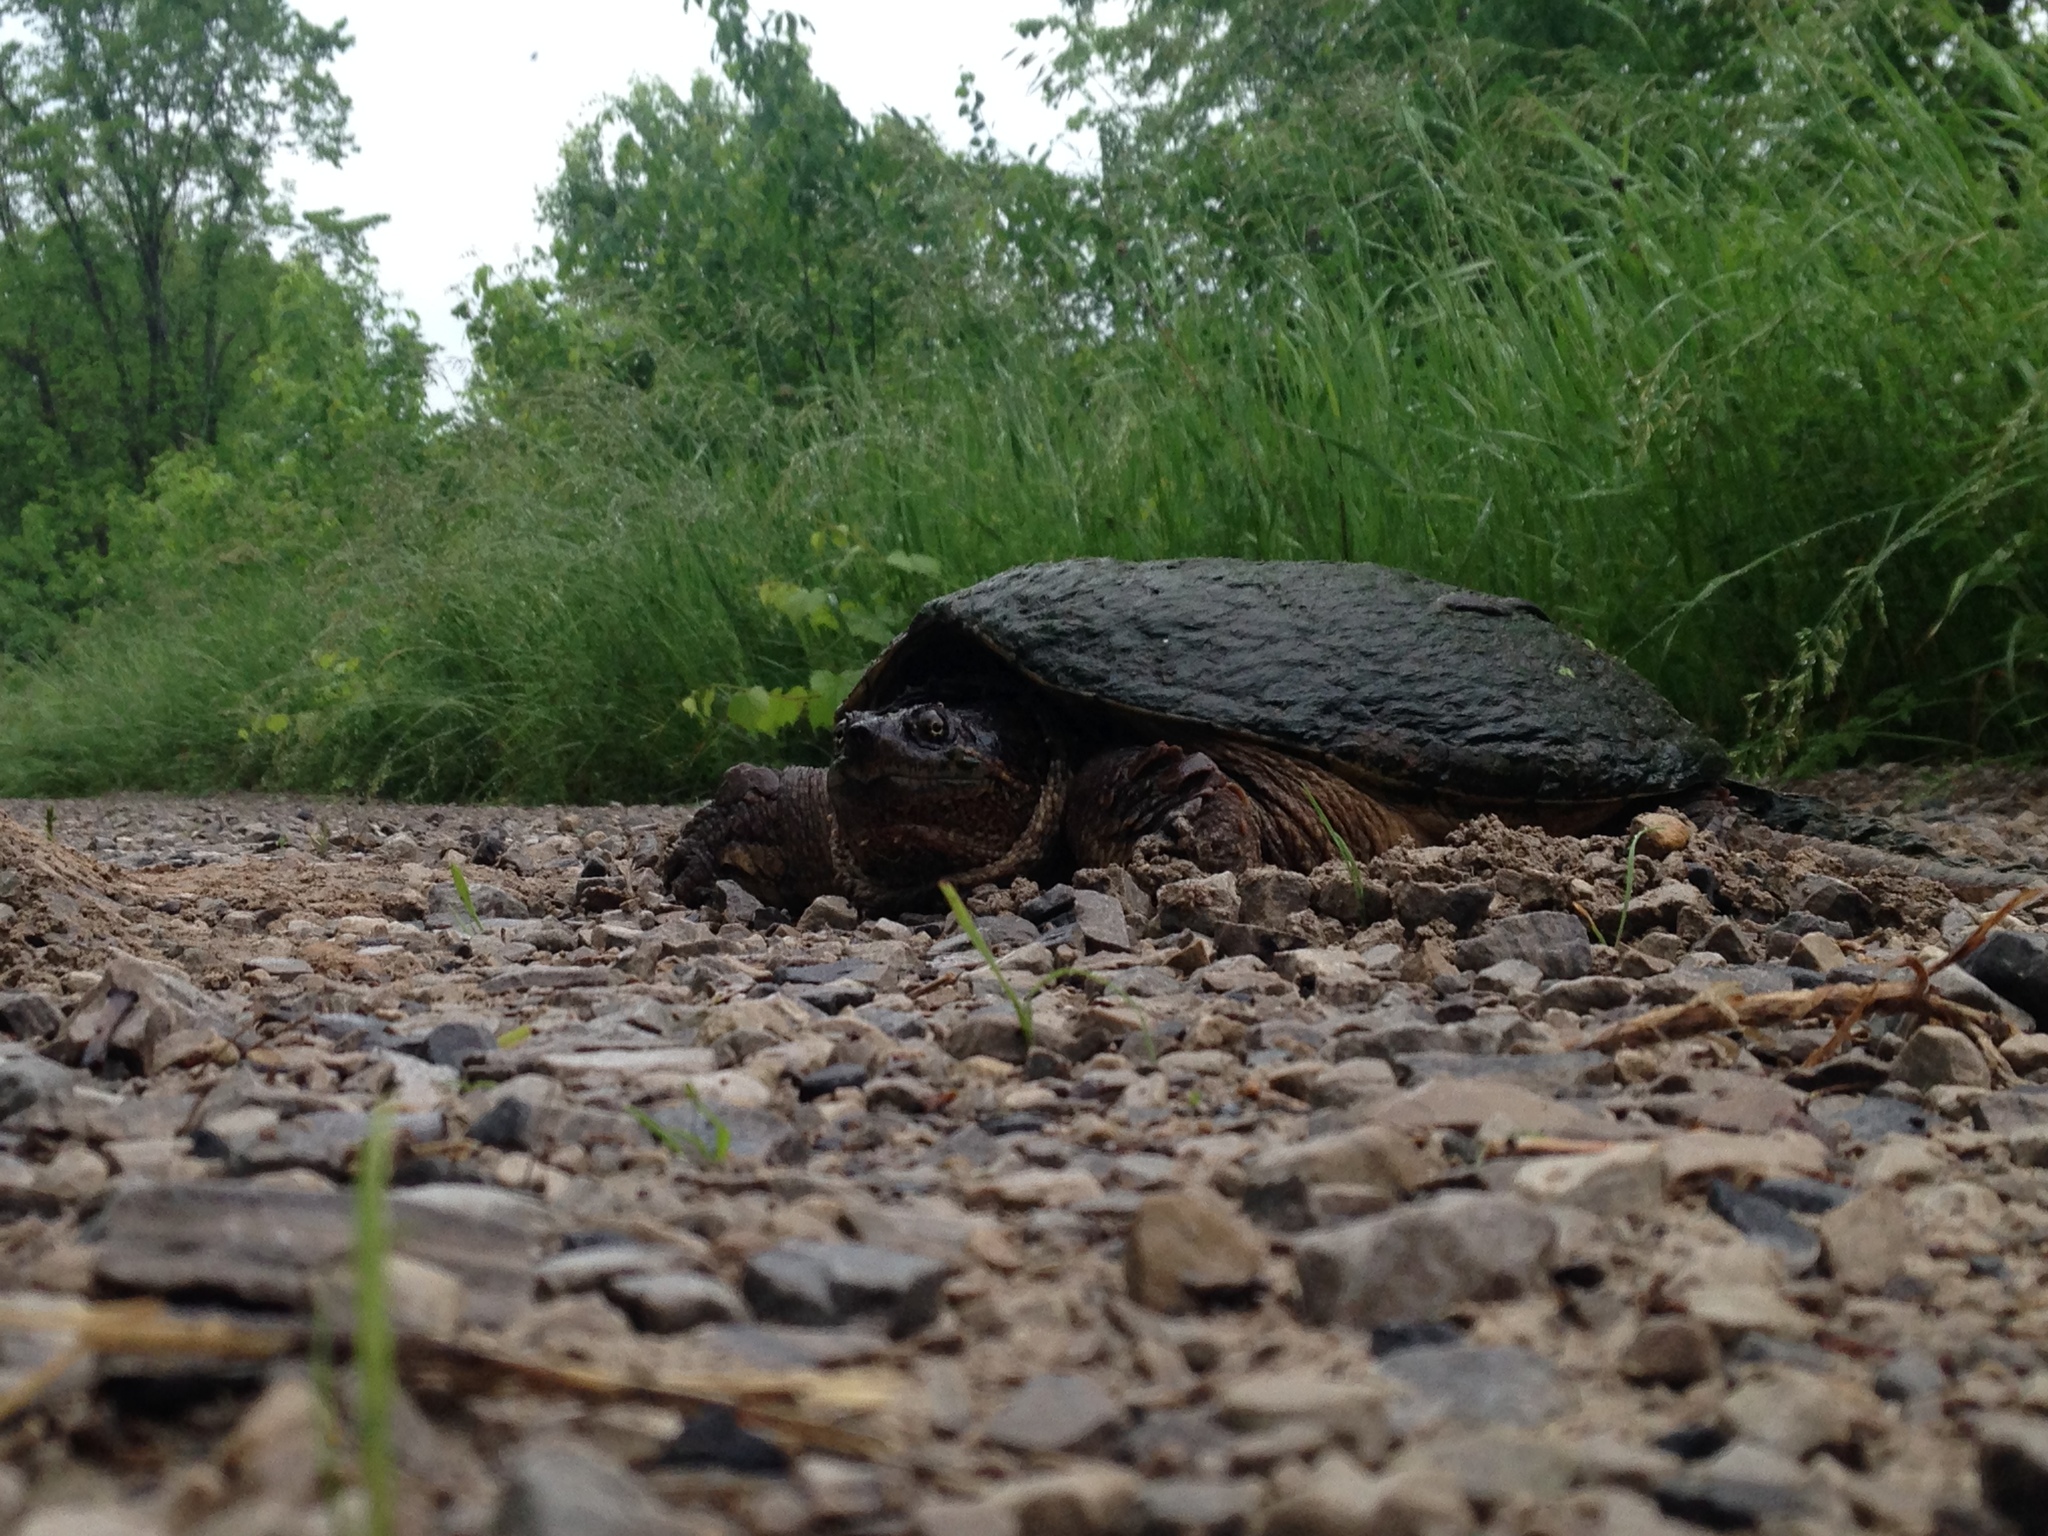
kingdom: Animalia
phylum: Chordata
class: Testudines
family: Chelydridae
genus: Chelydra
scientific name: Chelydra serpentina
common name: Common snapping turtle
